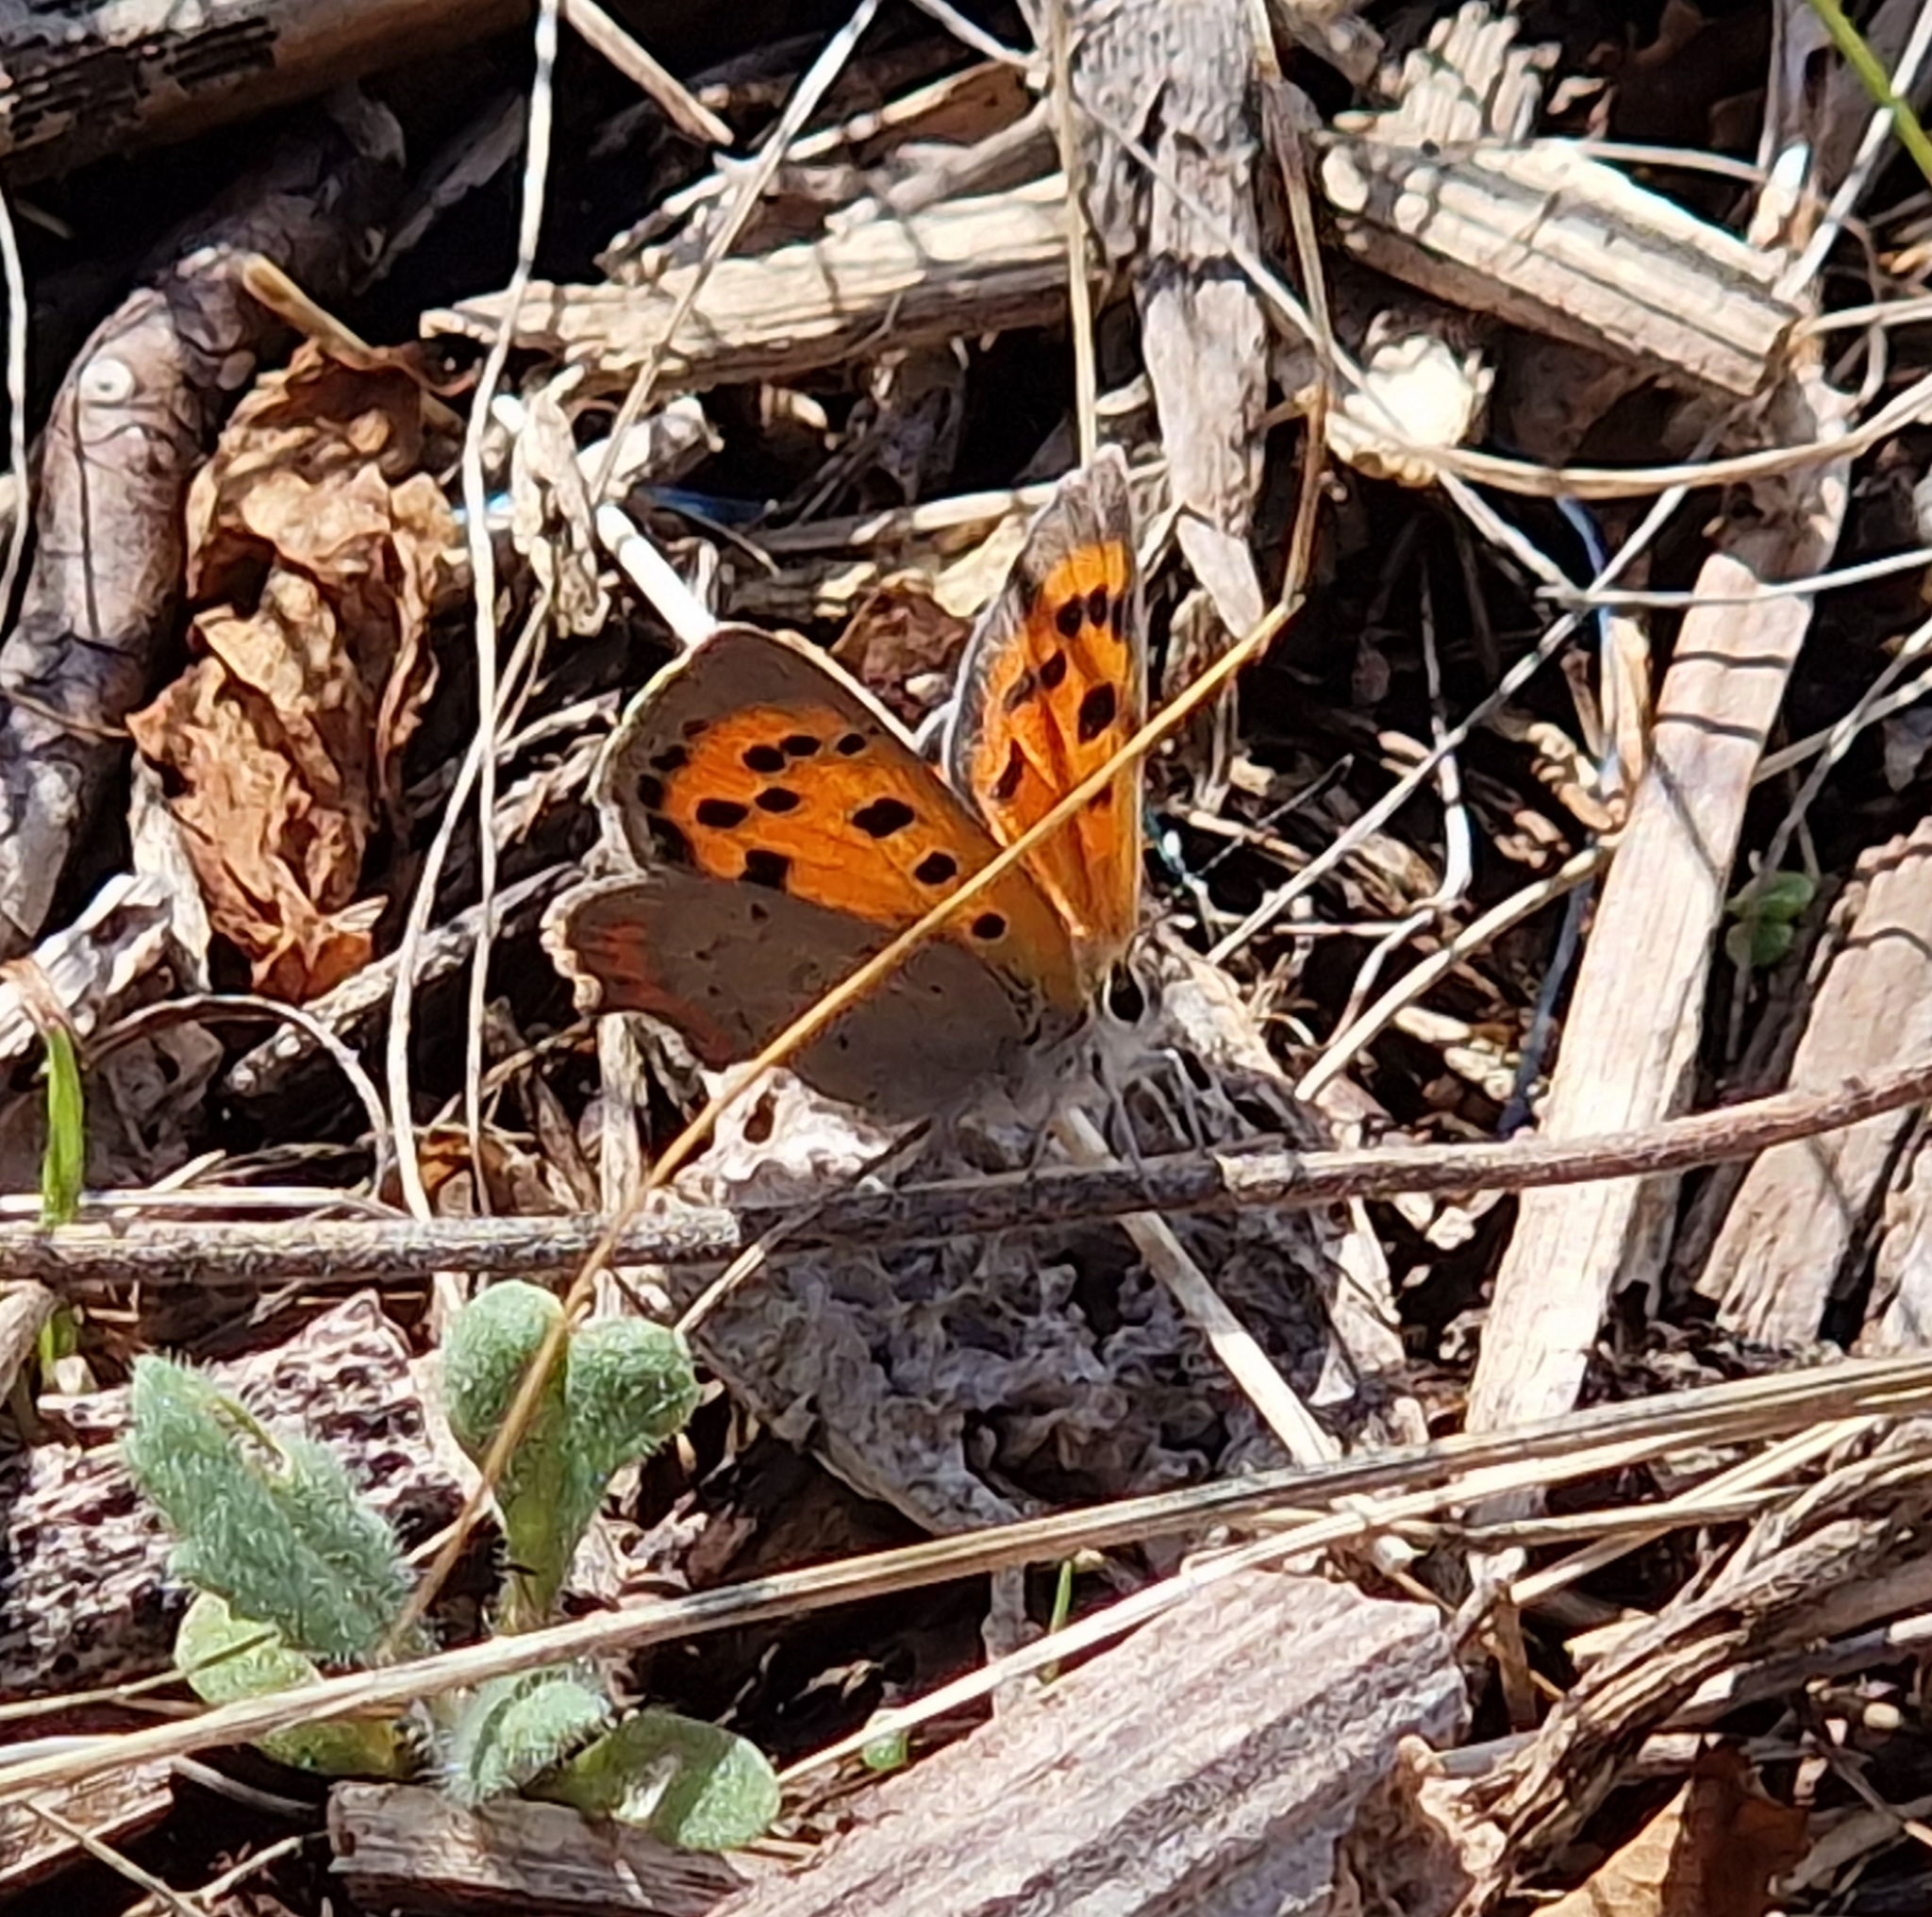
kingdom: Animalia
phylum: Arthropoda
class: Insecta
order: Lepidoptera
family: Lycaenidae
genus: Lycaena
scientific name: Lycaena phlaeas
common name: Small copper
